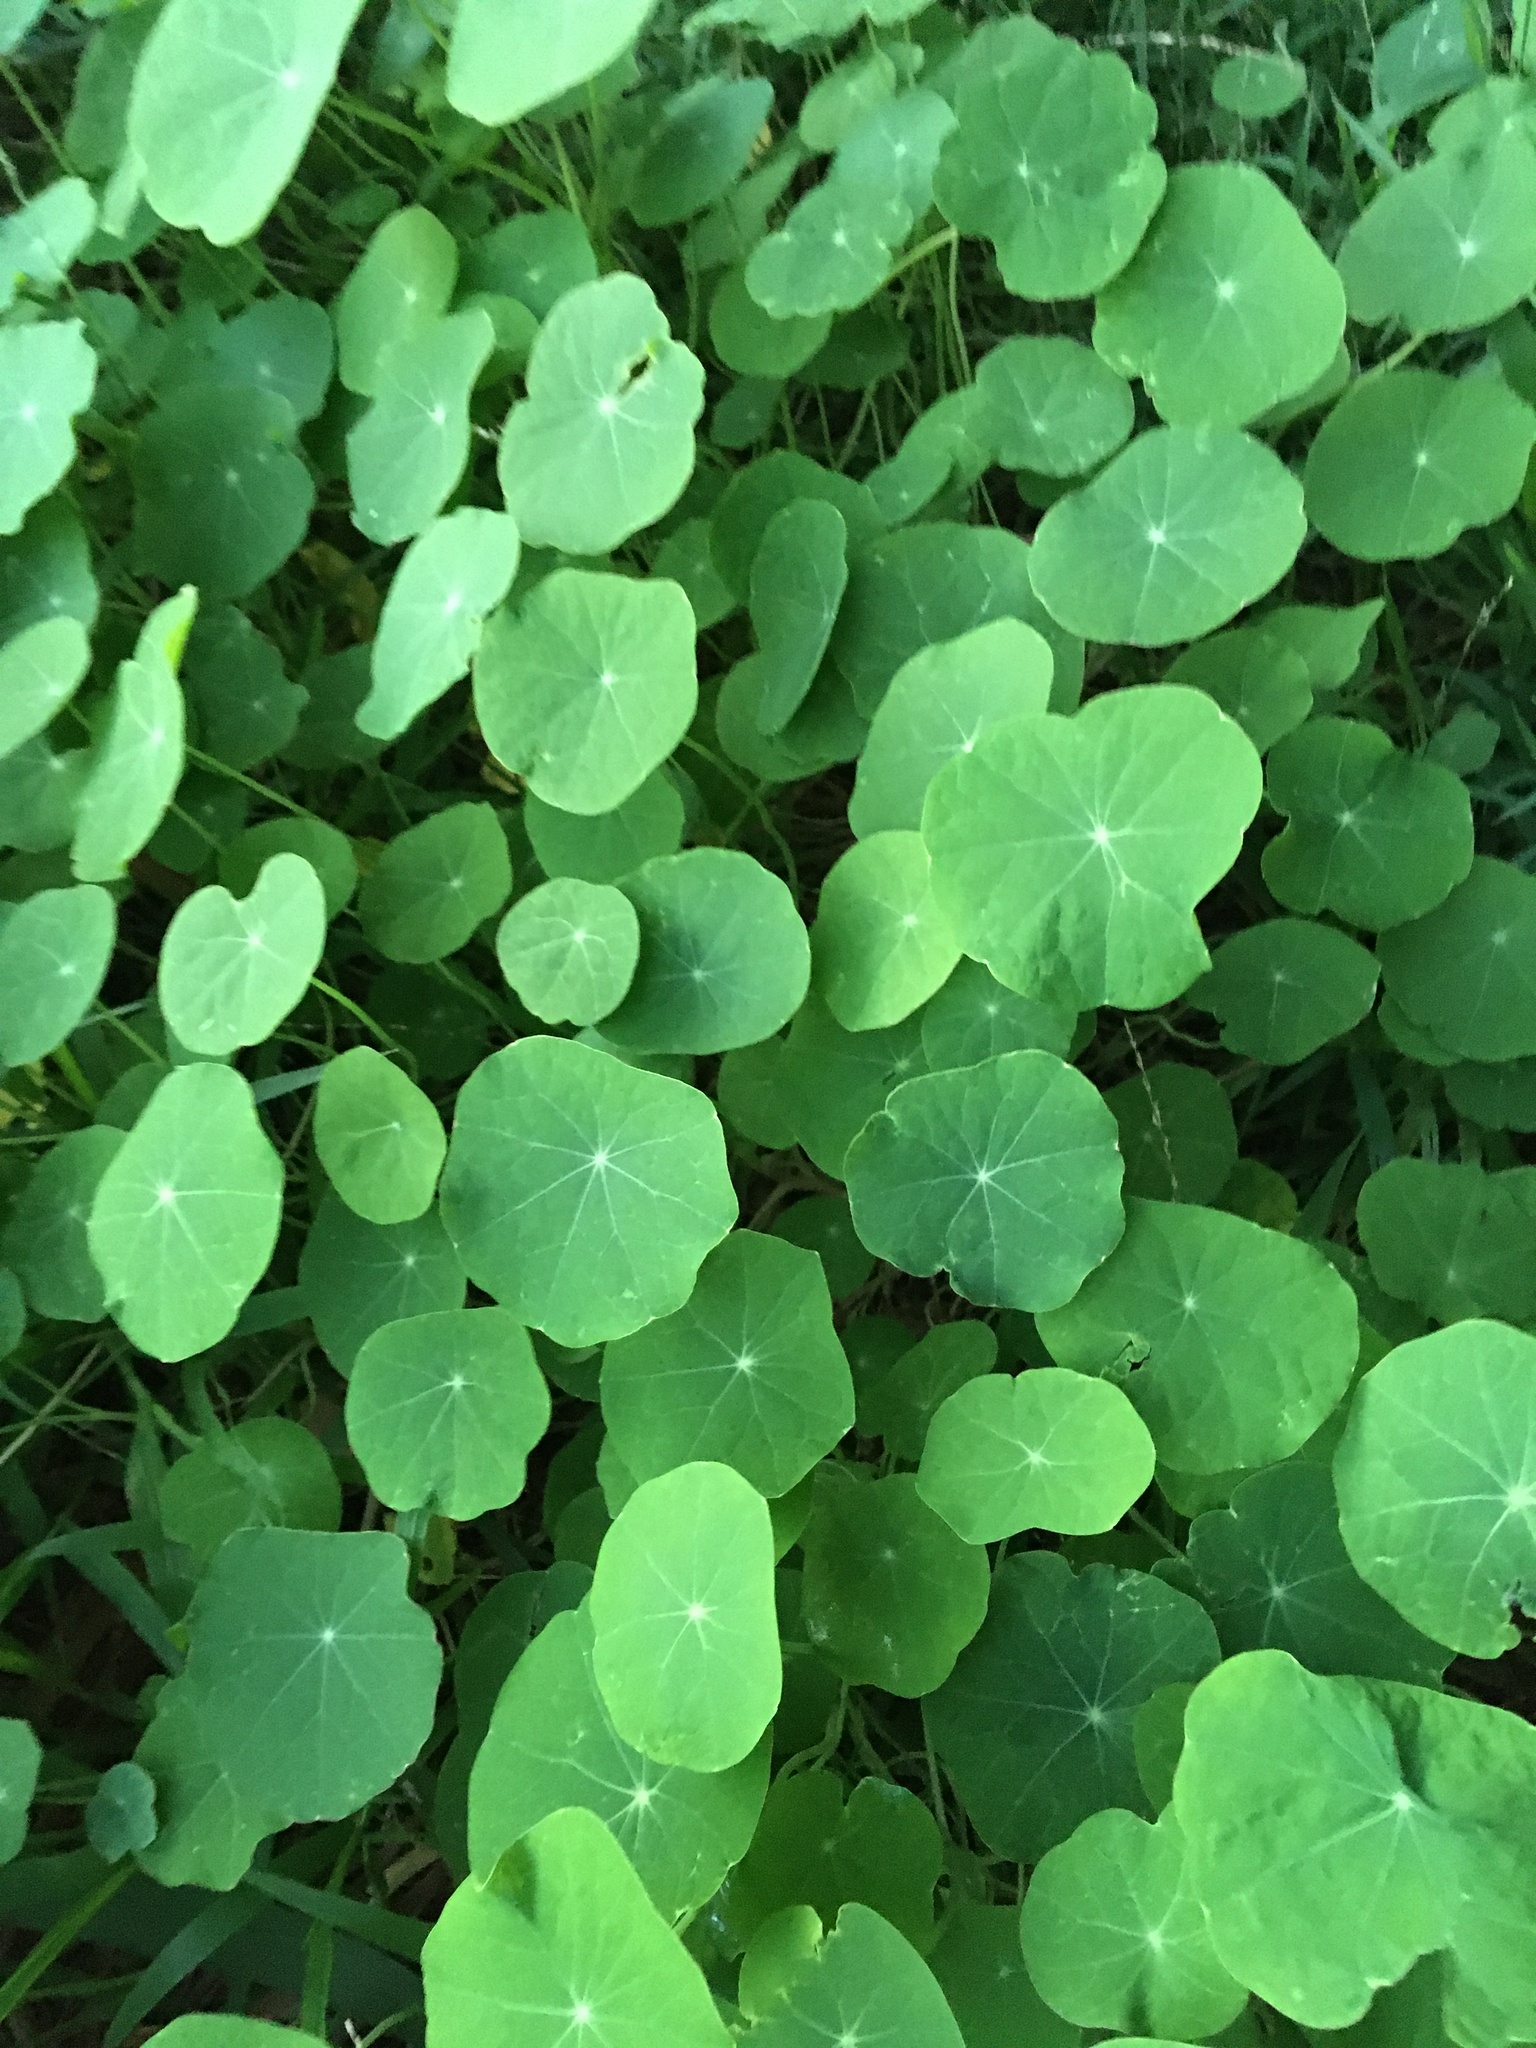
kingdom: Plantae
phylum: Tracheophyta
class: Magnoliopsida
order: Brassicales
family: Tropaeolaceae
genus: Tropaeolum
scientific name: Tropaeolum majus
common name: Nasturtium
